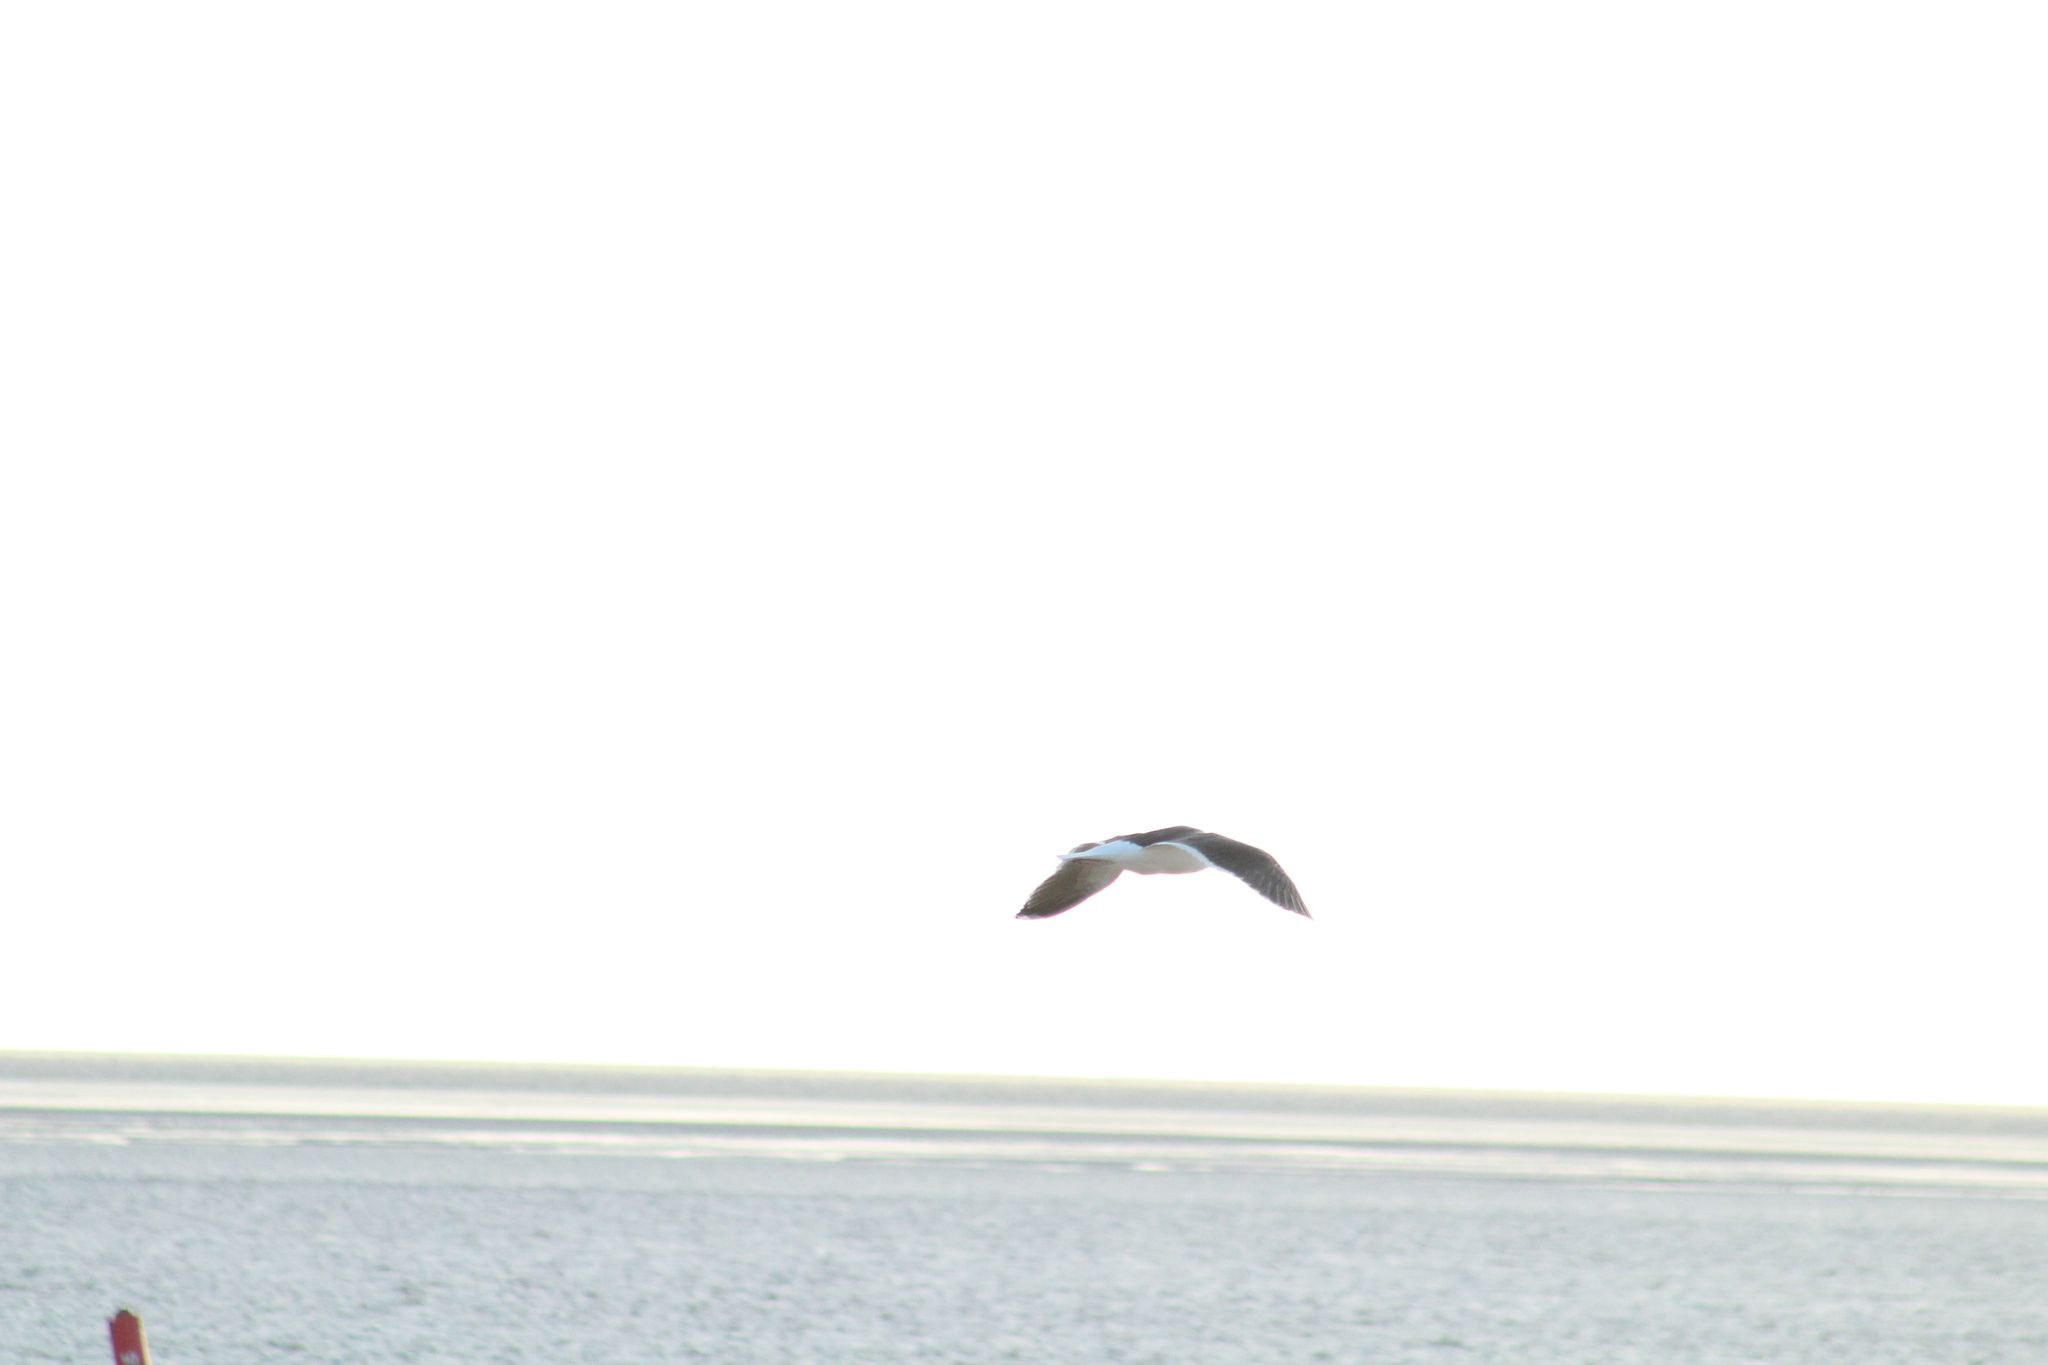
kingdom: Animalia
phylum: Chordata
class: Aves
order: Charadriiformes
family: Laridae
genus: Larus
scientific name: Larus marinus
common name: Great black-backed gull
